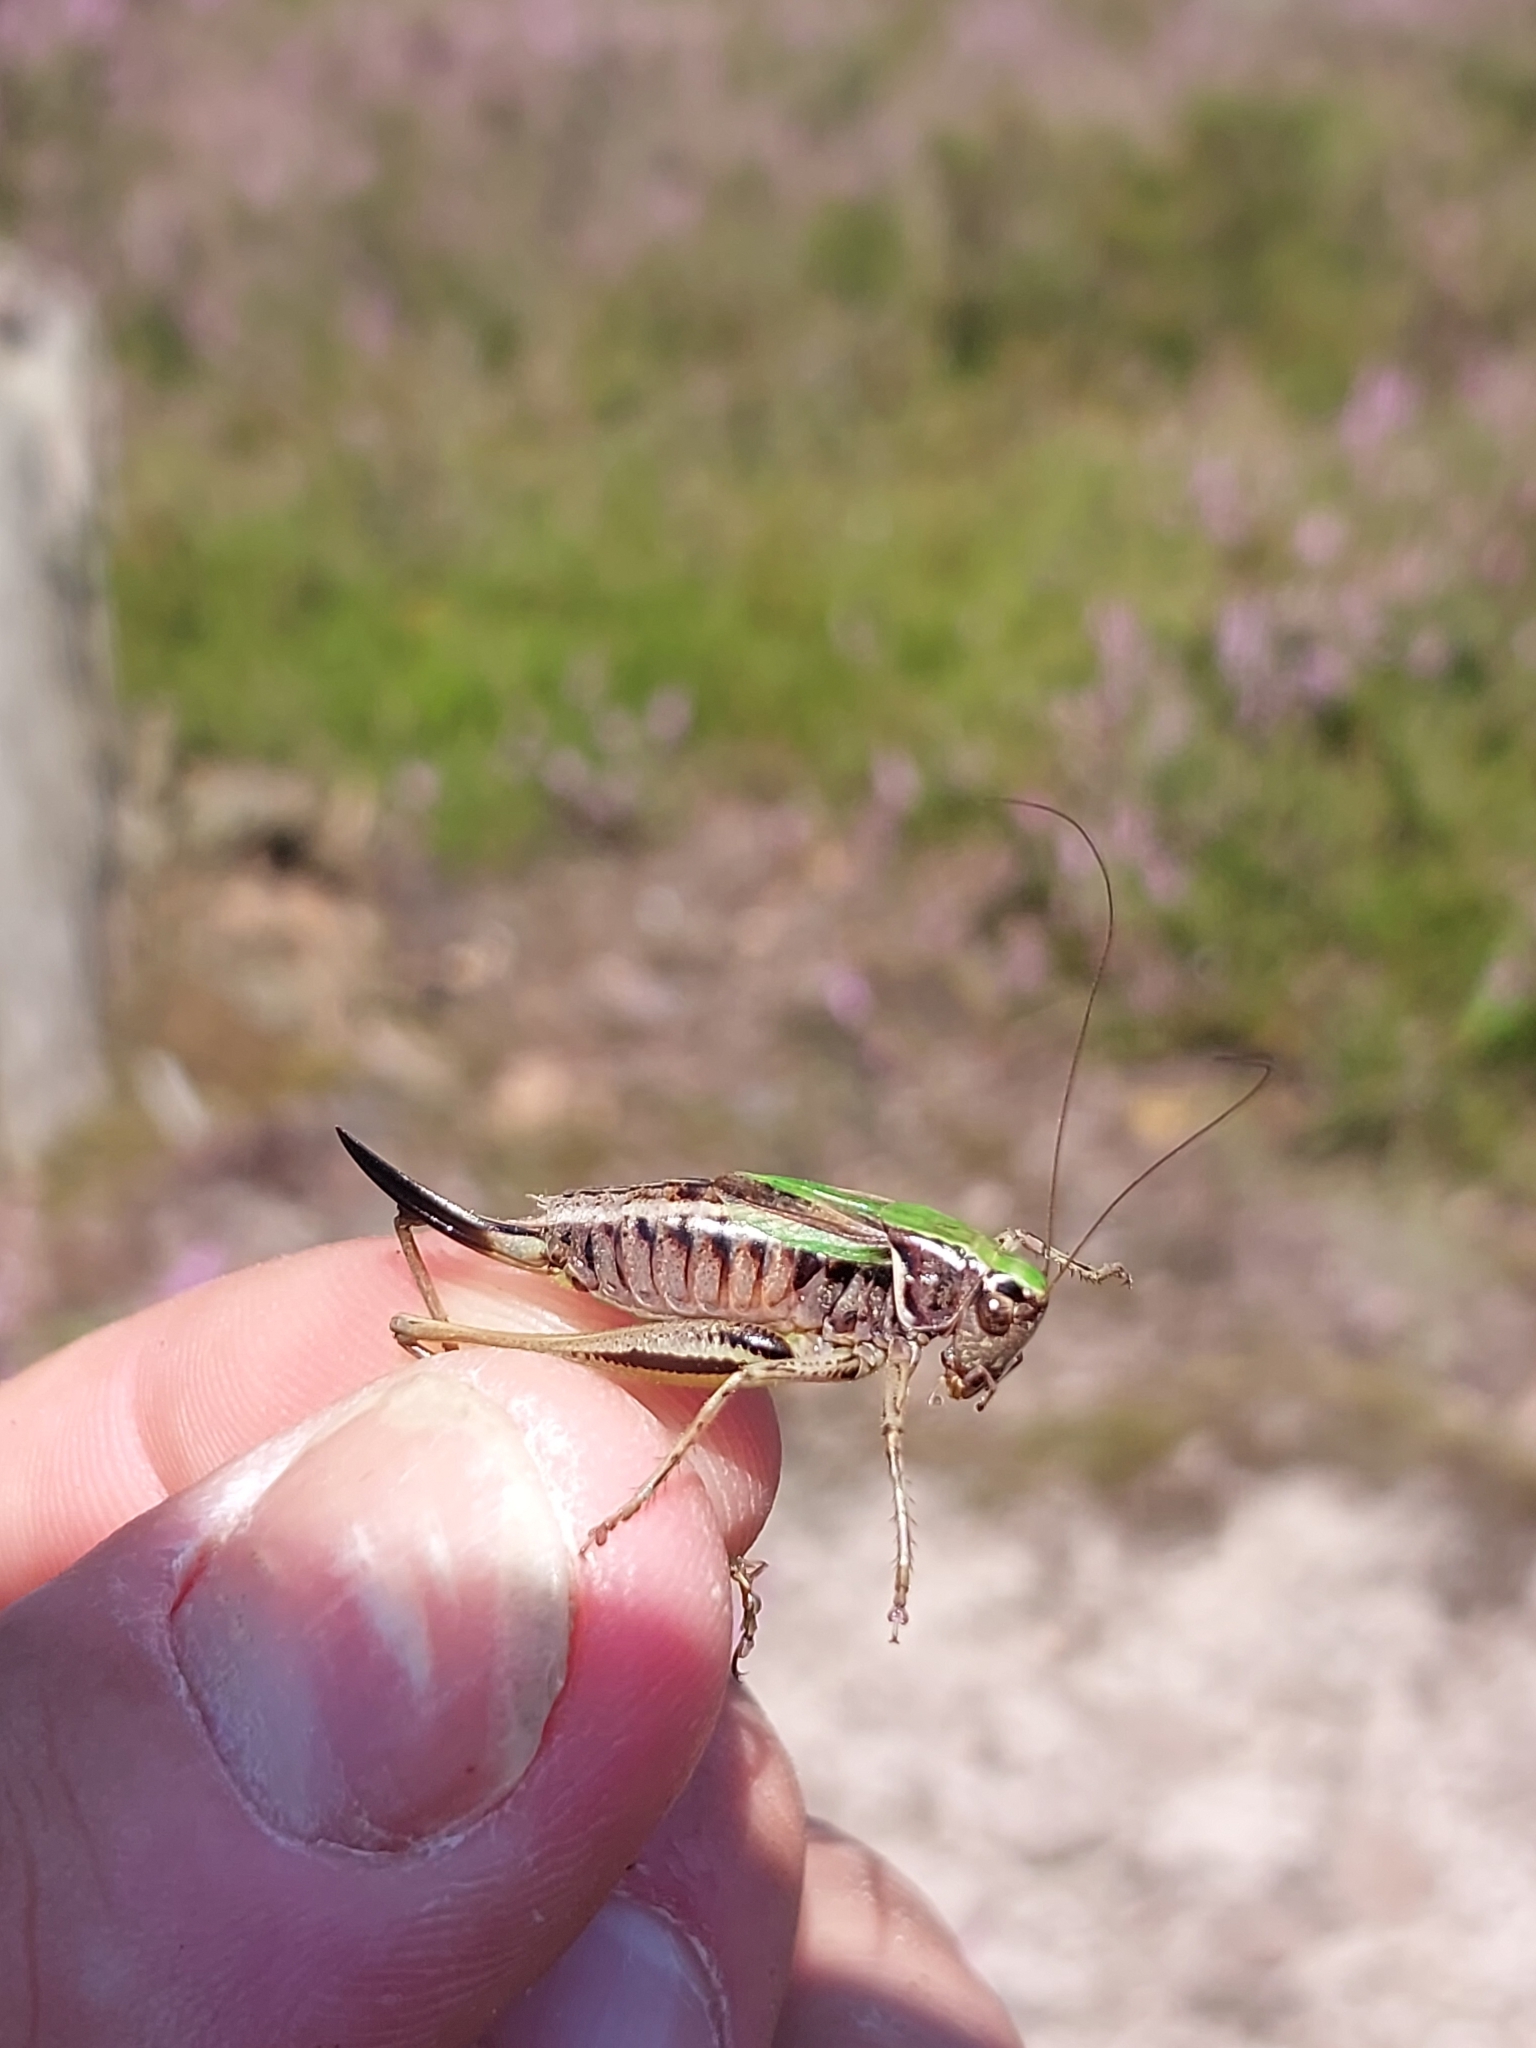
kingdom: Animalia
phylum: Arthropoda
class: Insecta
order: Orthoptera
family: Tettigoniidae
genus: Metrioptera
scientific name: Metrioptera brachyptera
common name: Bog bush-cricket
